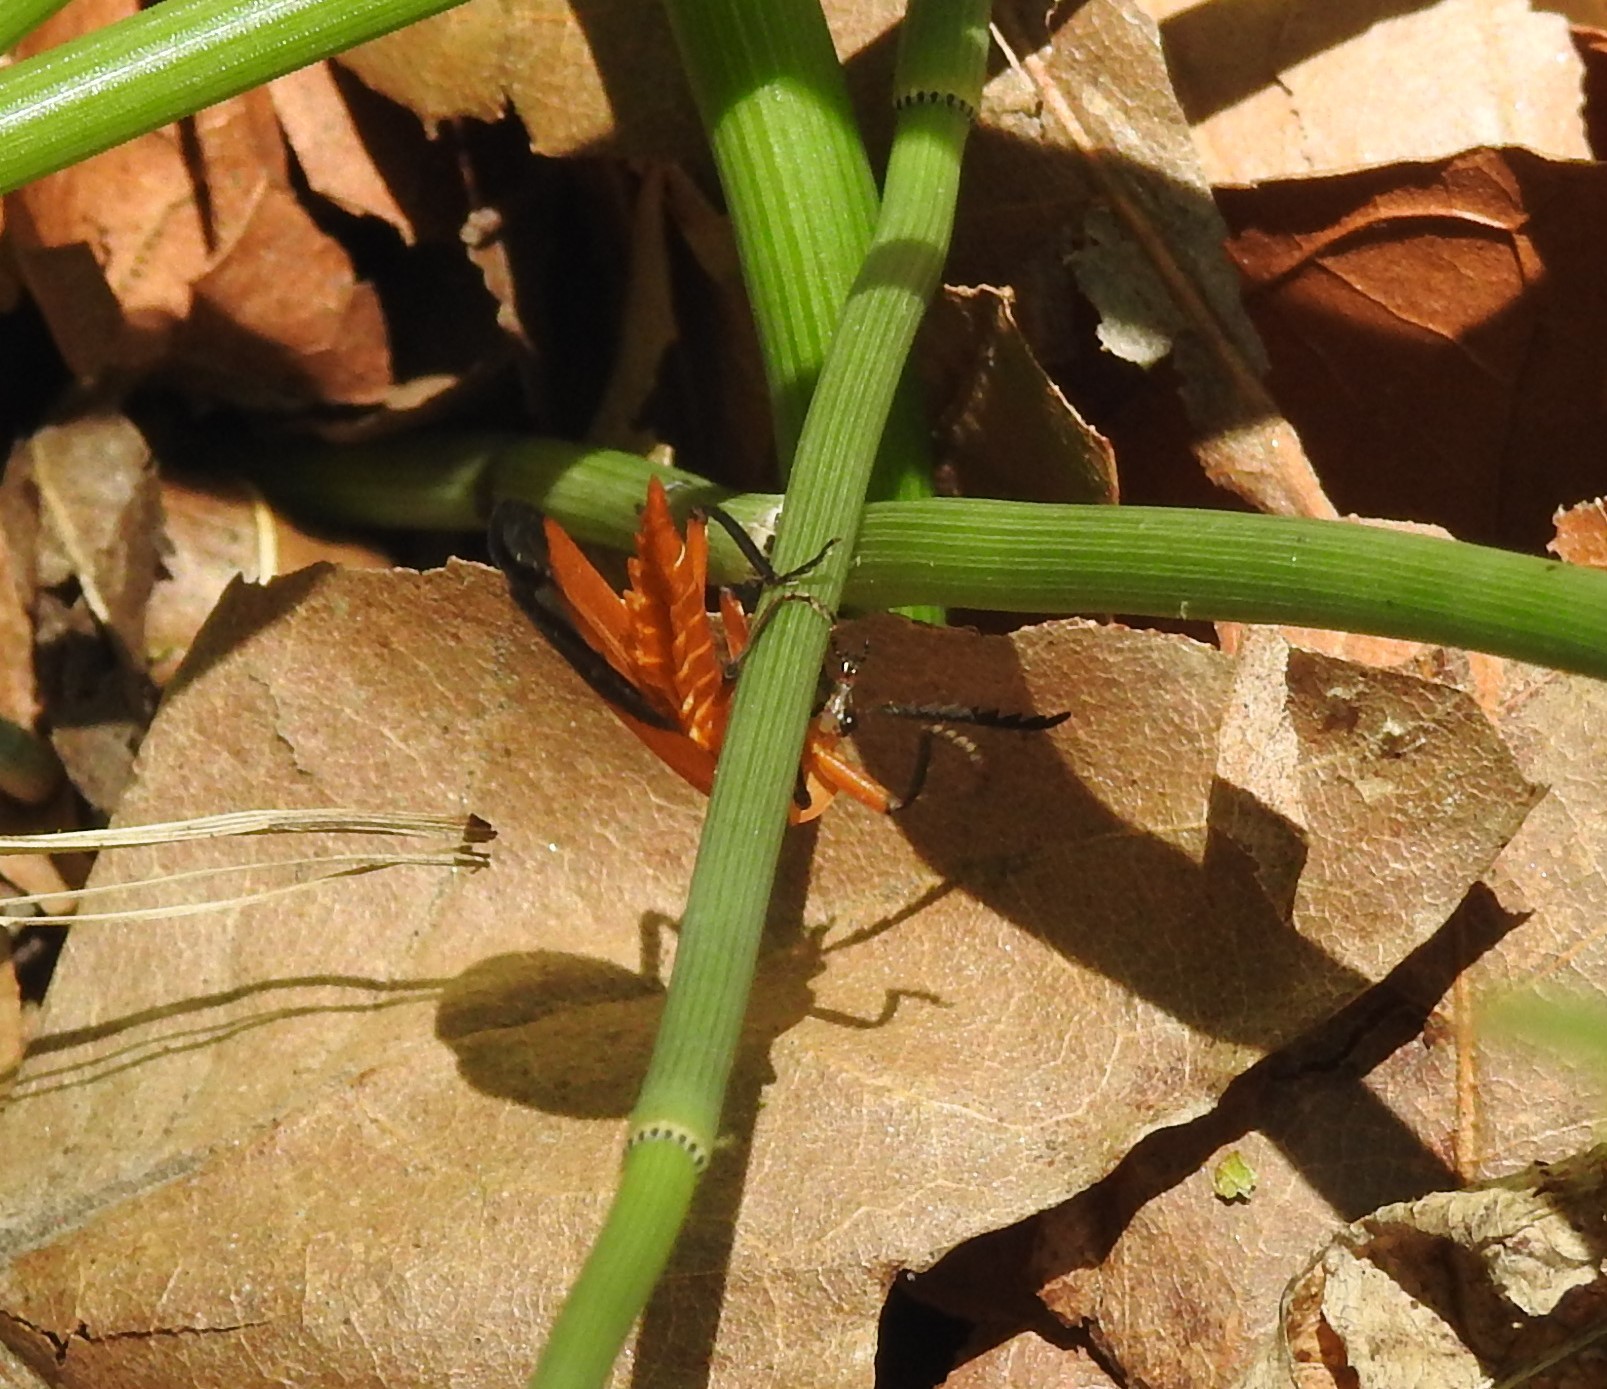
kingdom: Animalia
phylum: Arthropoda
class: Insecta
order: Coleoptera
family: Lycidae
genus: Lycus
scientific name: Lycus arizonensis
